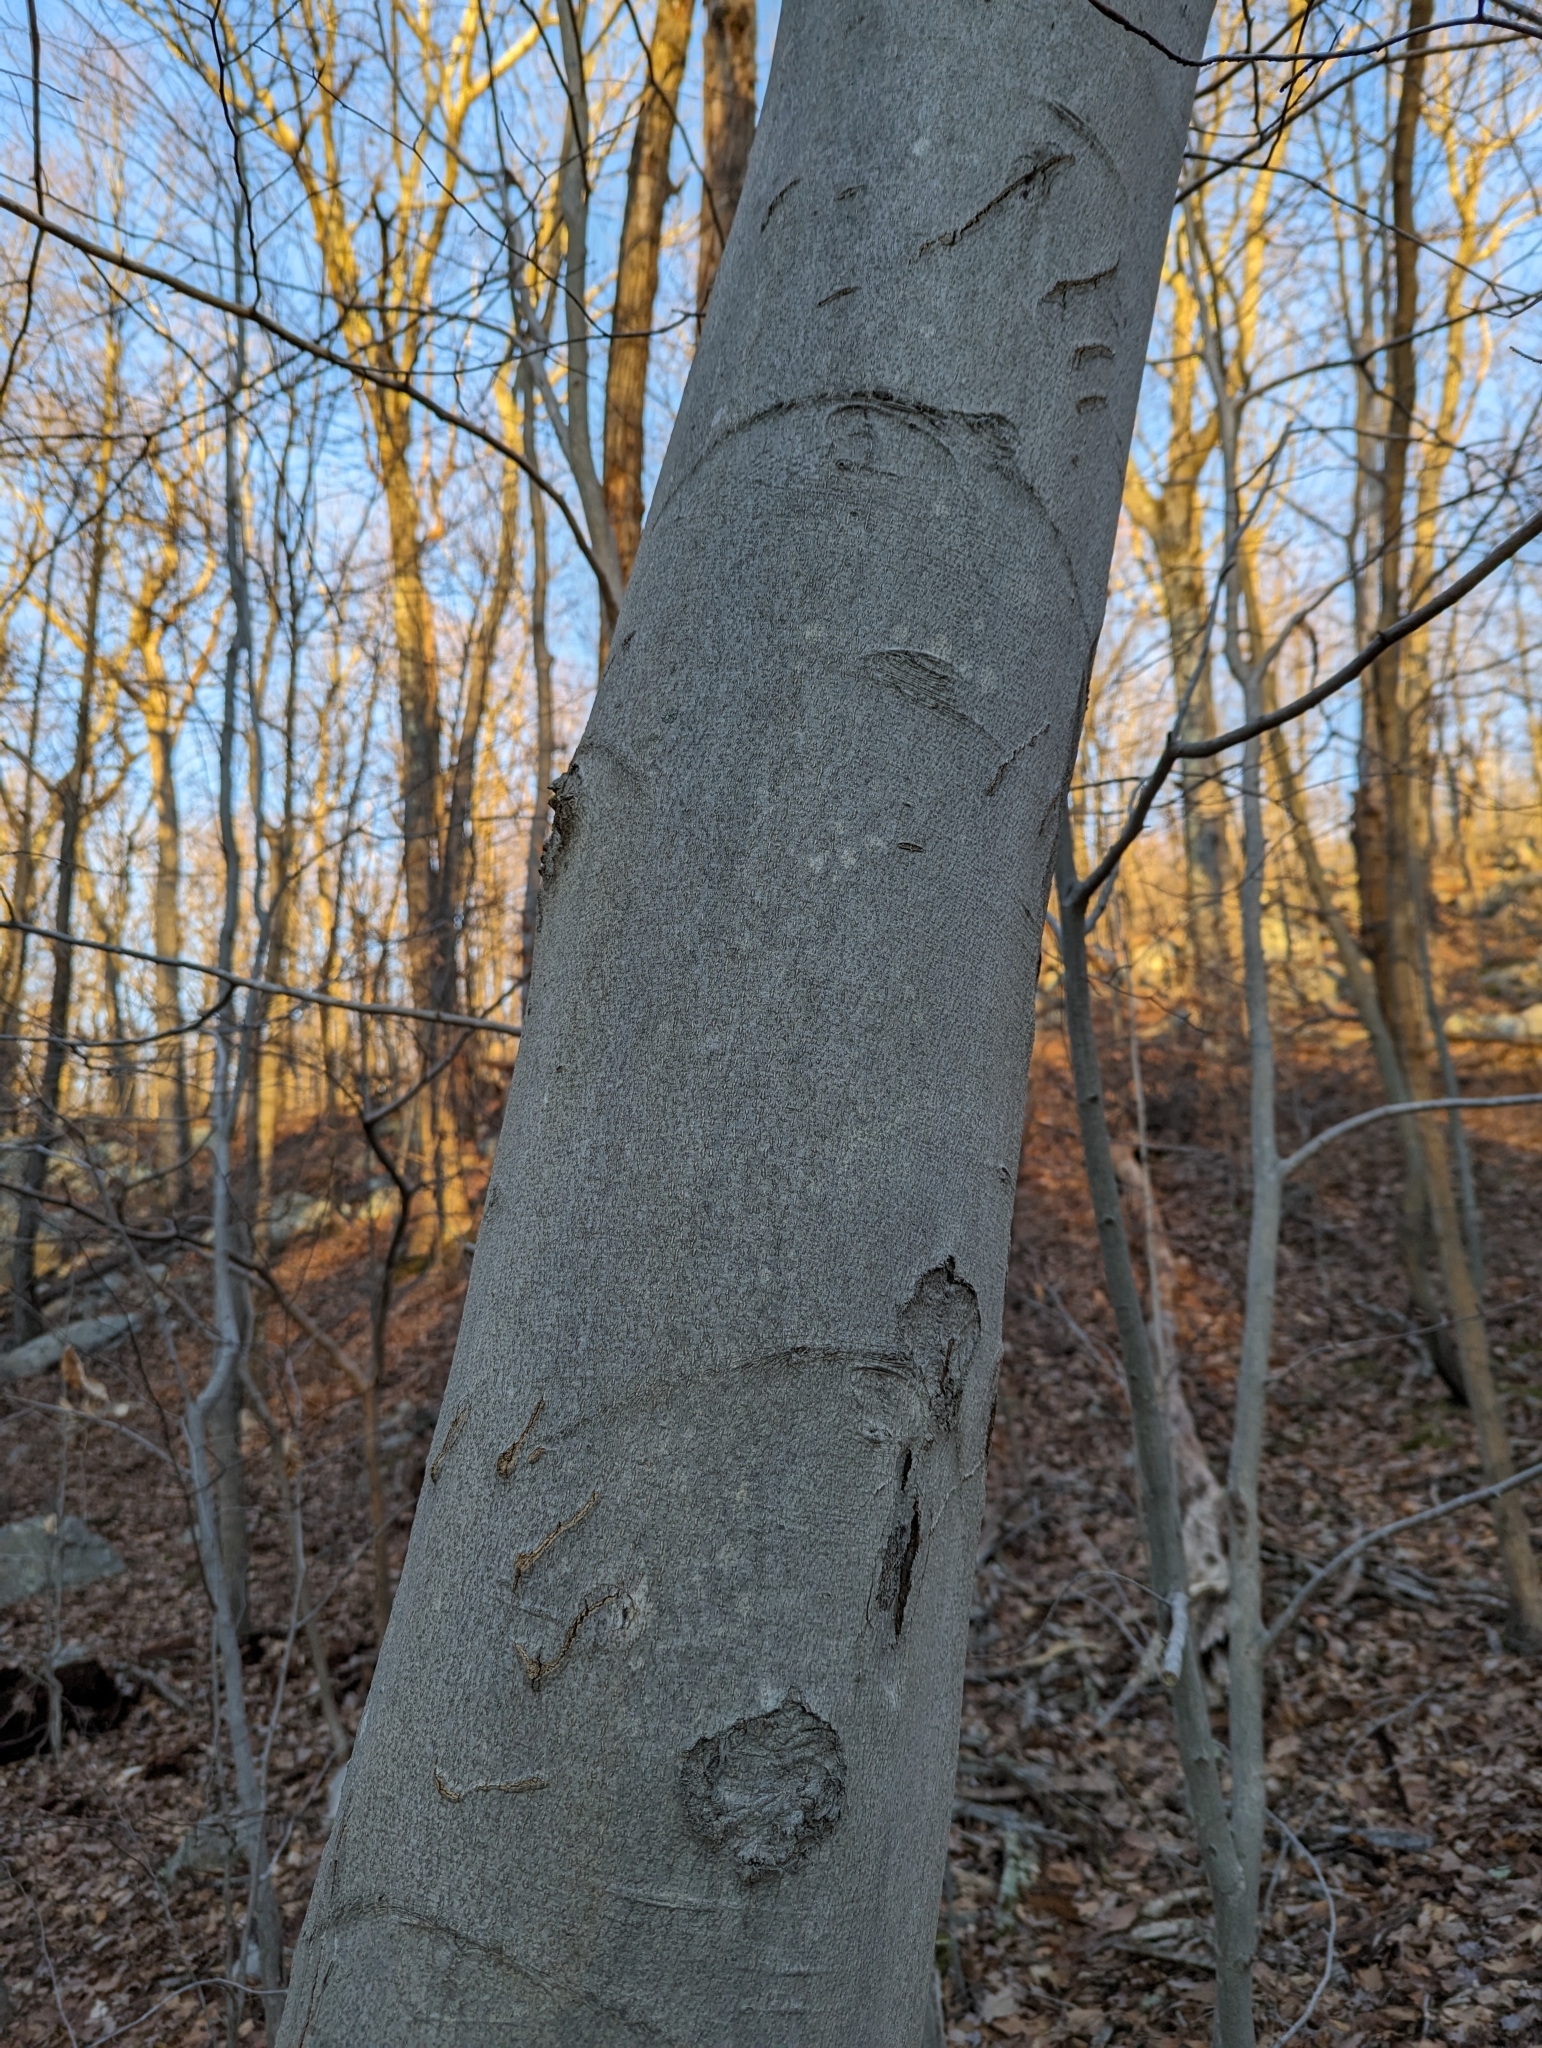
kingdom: Animalia
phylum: Chordata
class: Mammalia
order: Carnivora
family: Ursidae
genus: Ursus
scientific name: Ursus americanus
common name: American black bear
